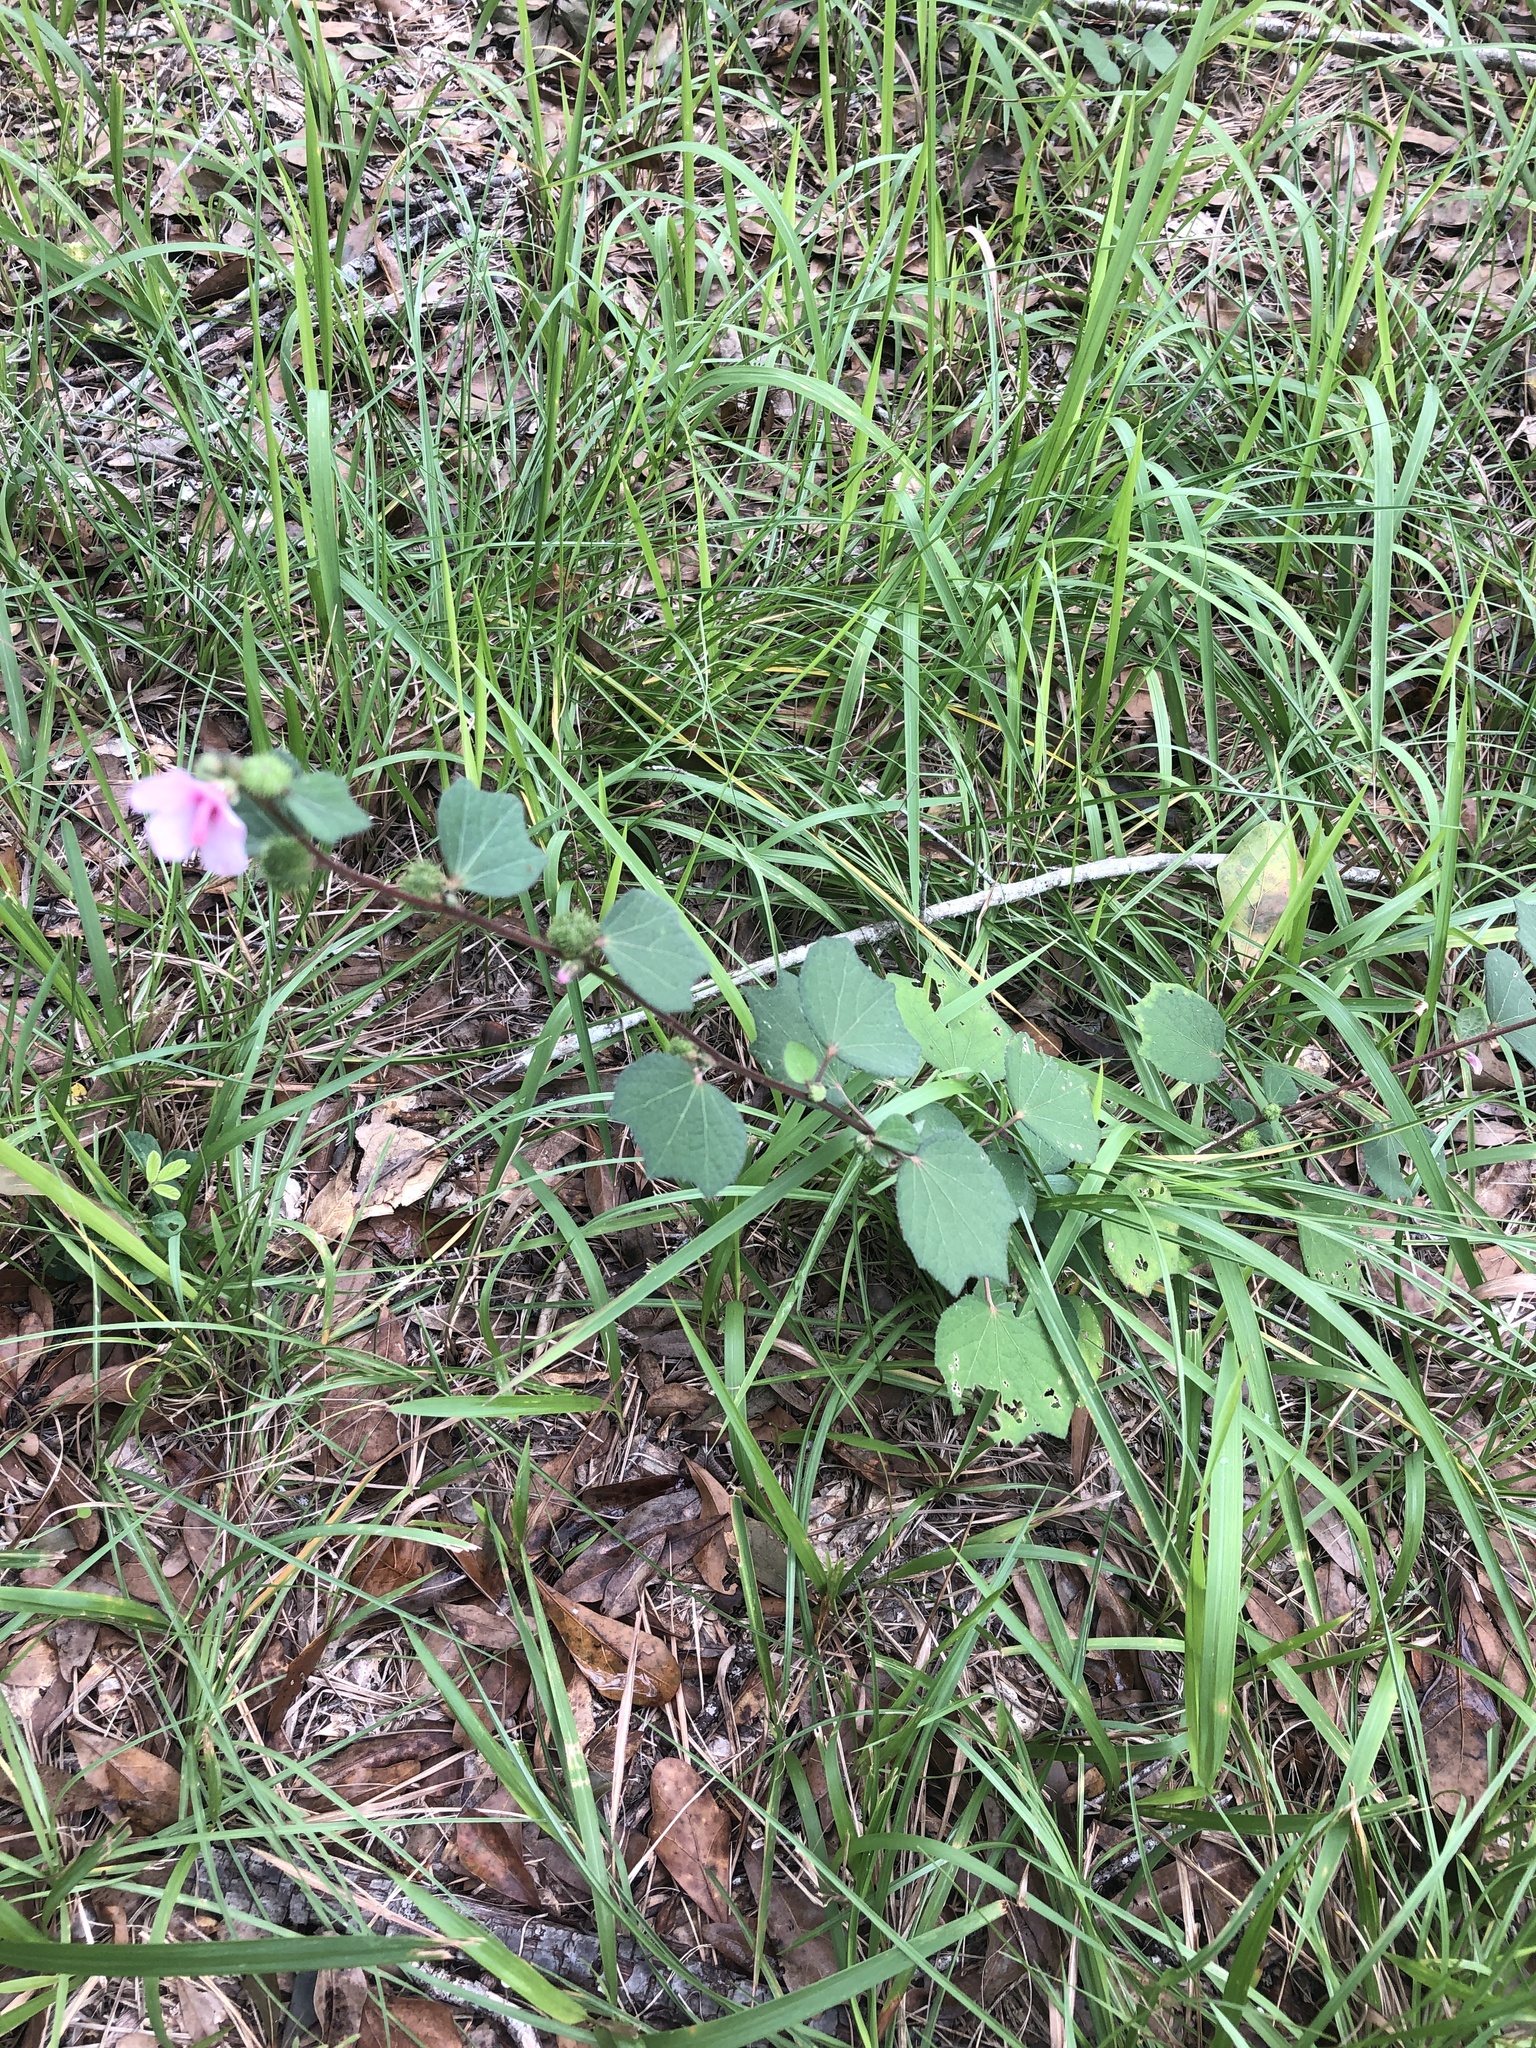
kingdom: Plantae
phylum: Tracheophyta
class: Magnoliopsida
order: Malvales
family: Malvaceae
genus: Urena
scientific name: Urena lobata
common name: Caesarweed
